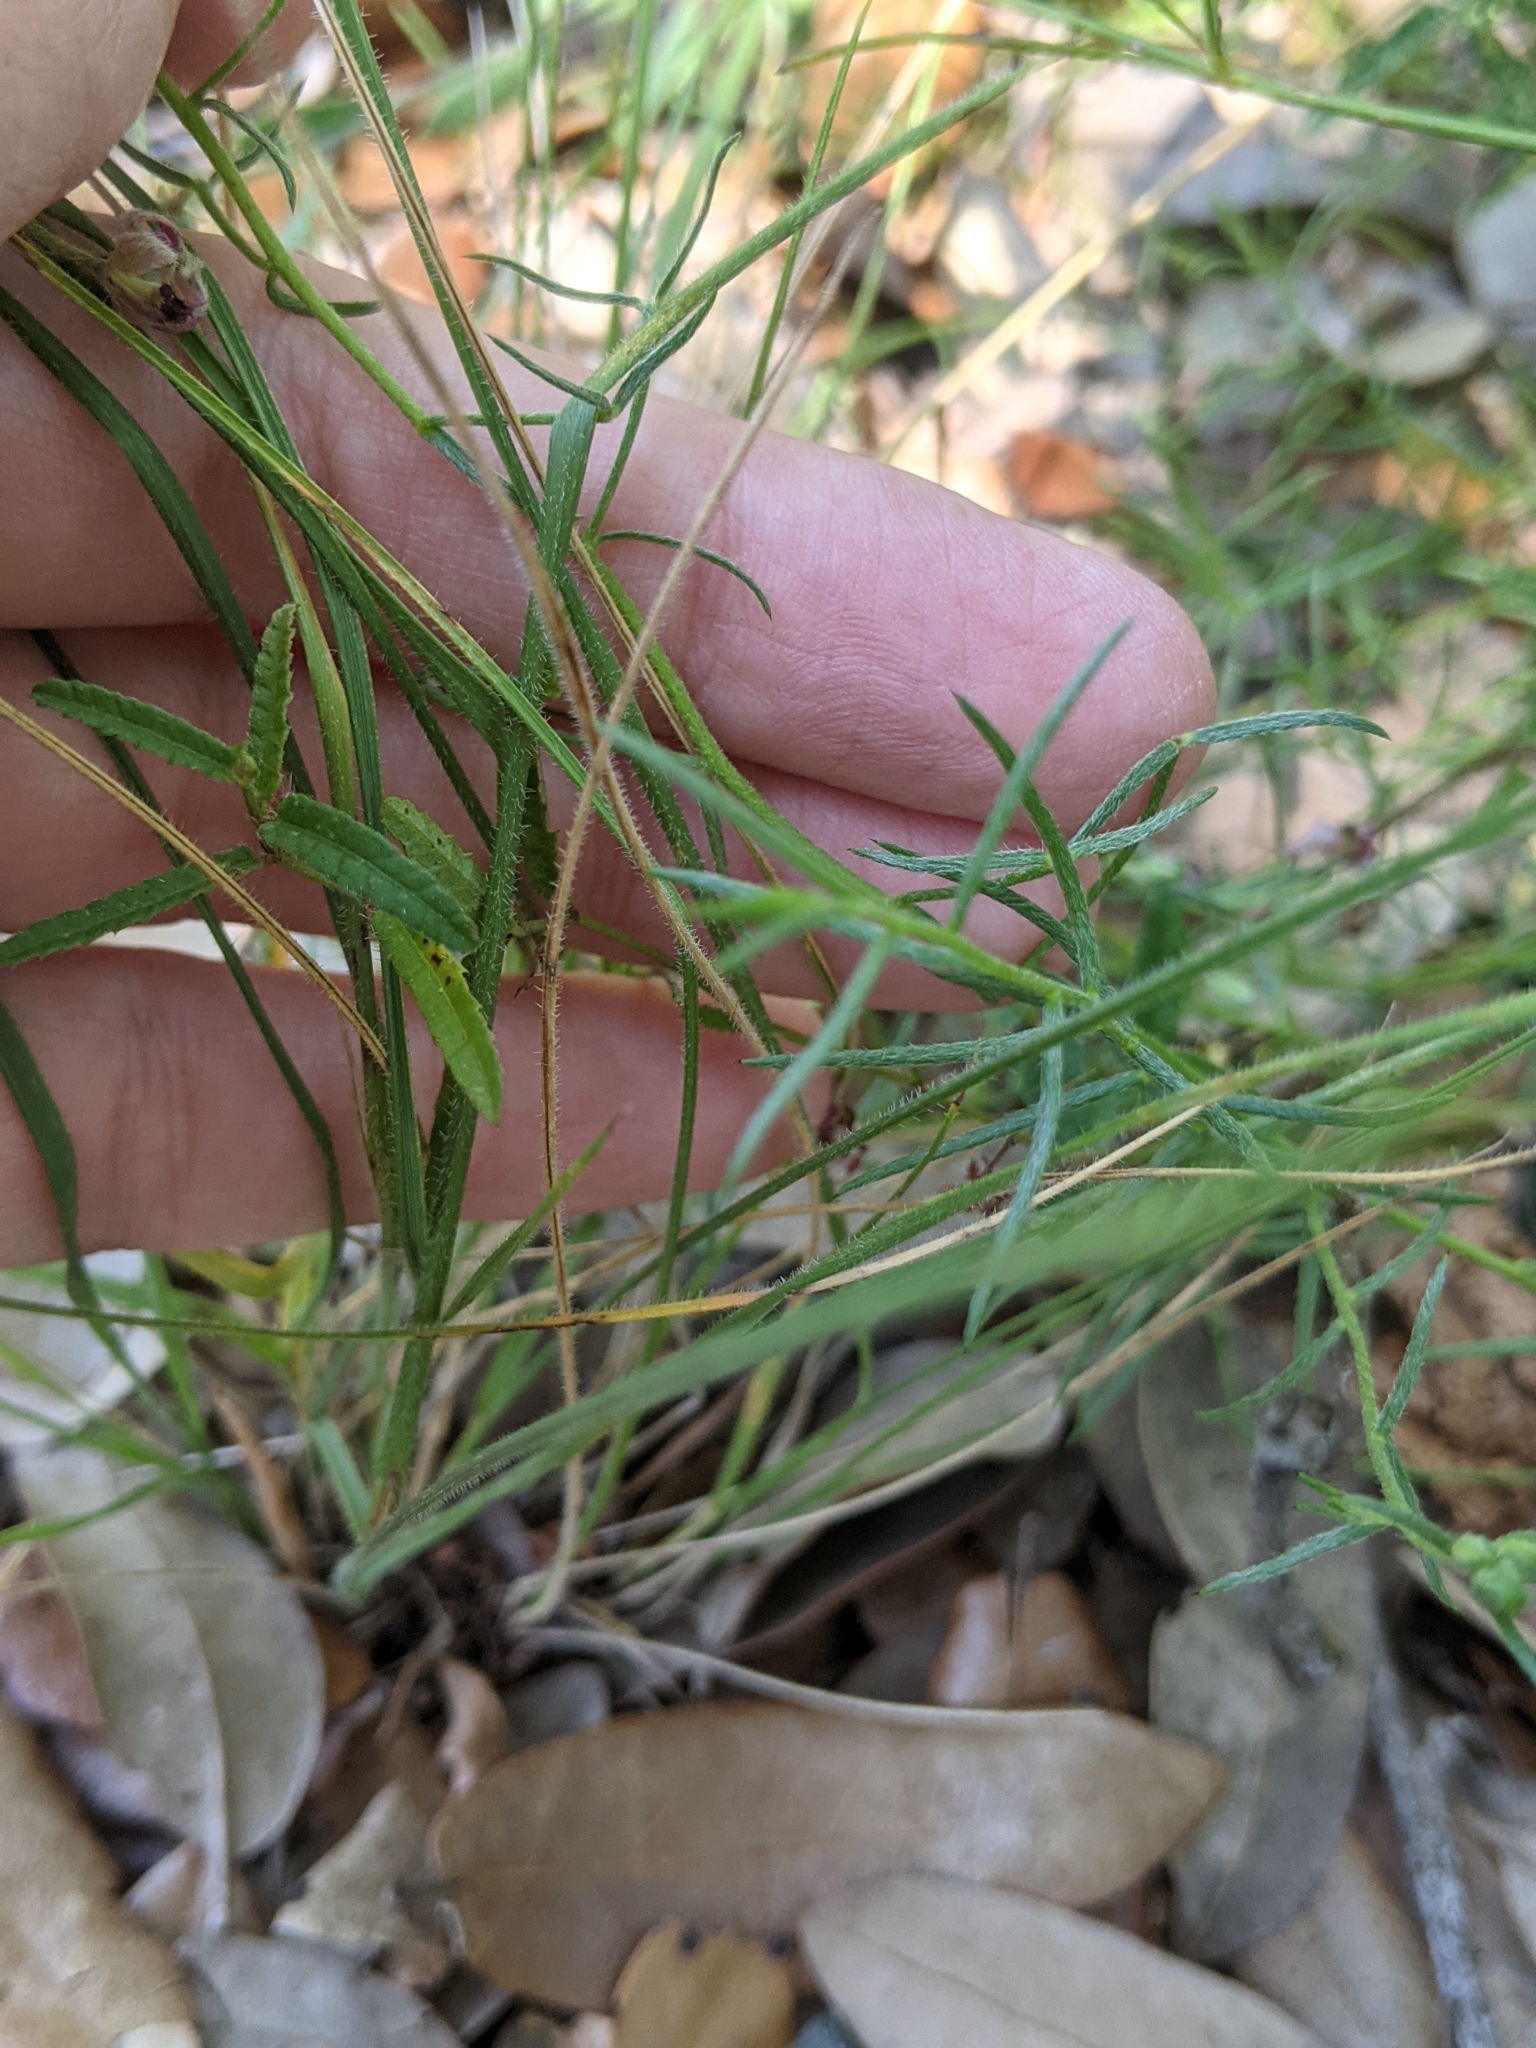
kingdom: Plantae
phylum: Tracheophyta
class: Magnoliopsida
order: Zygophyllales
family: Krameriaceae
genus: Krameria
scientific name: Krameria lanceolata
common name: Ratany
